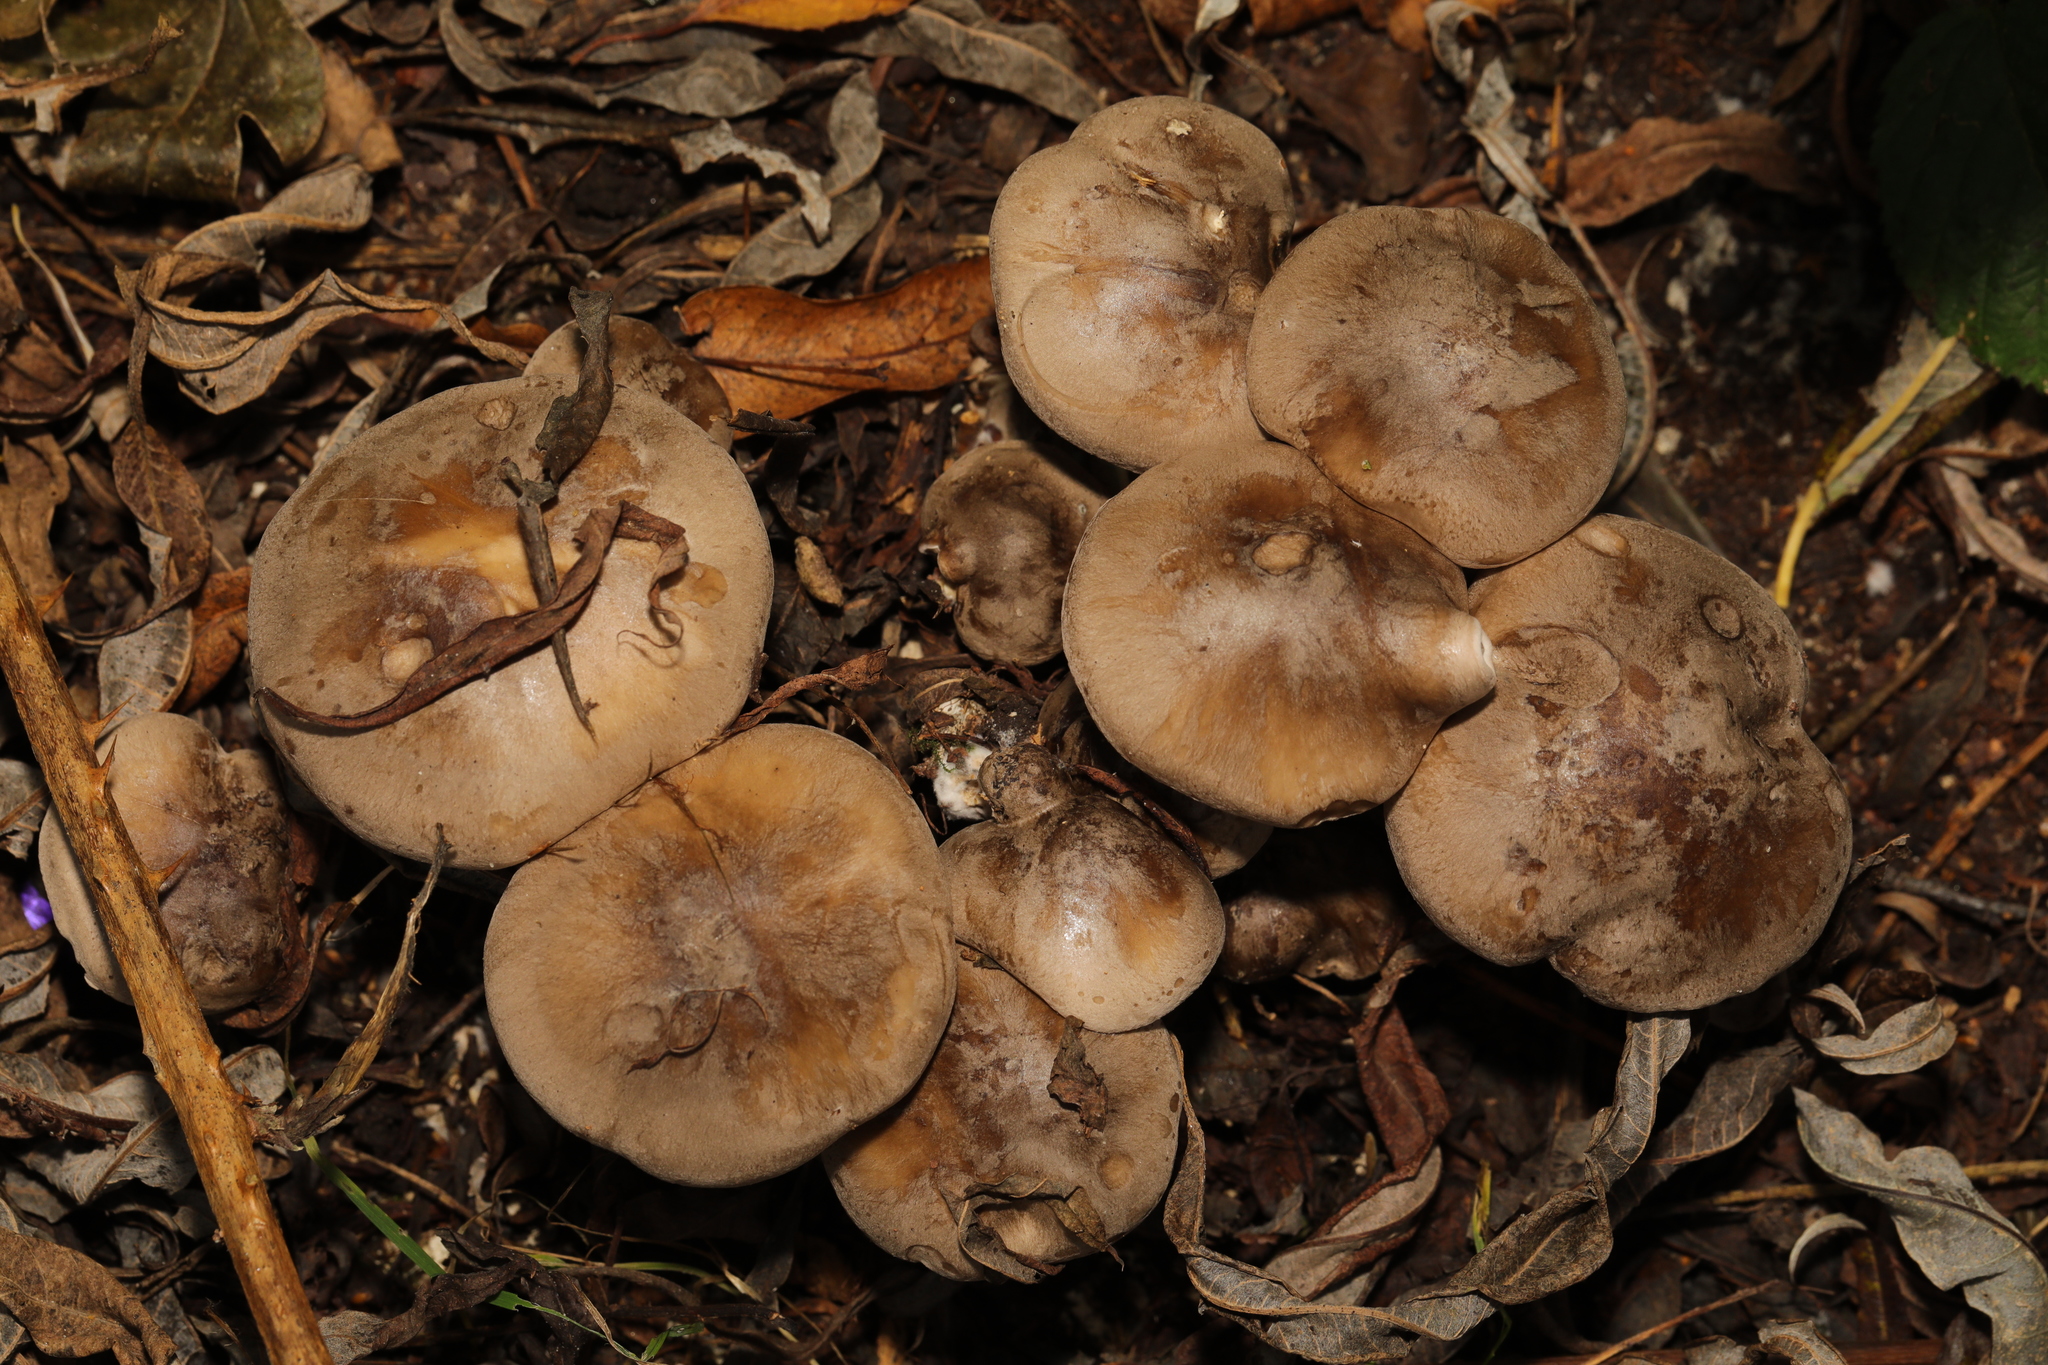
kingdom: Fungi
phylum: Basidiomycota
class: Agaricomycetes
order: Agaricales
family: Tricholomataceae
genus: Clitocybe
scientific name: Clitocybe nebularis
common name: Clouded agaric
